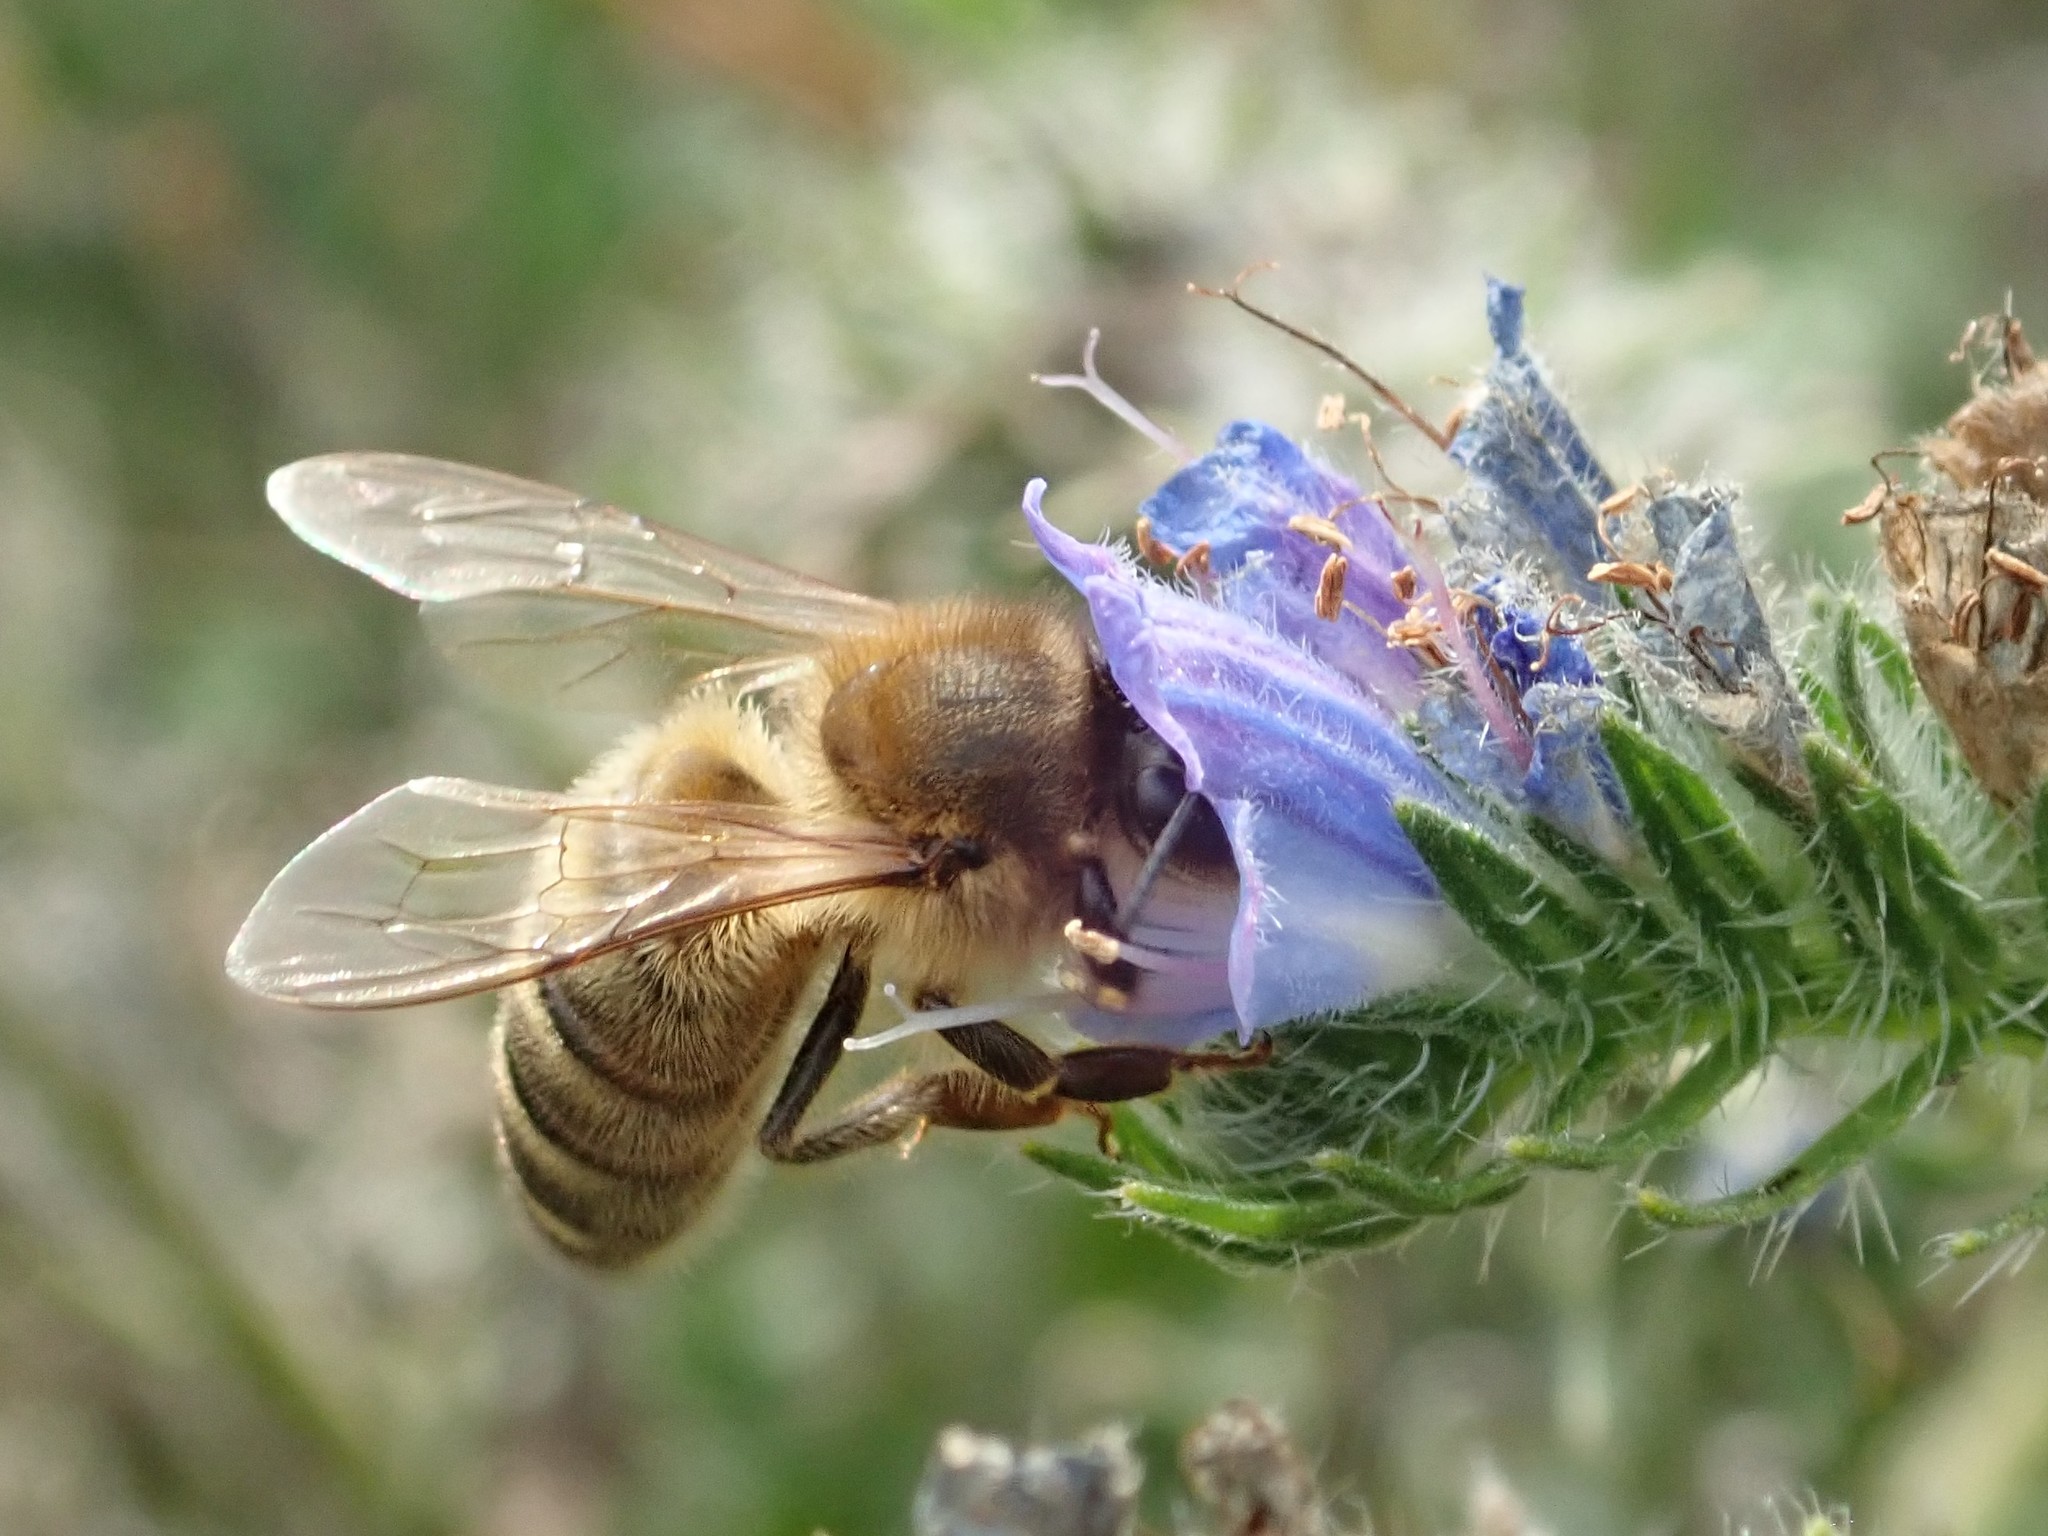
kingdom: Animalia
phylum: Arthropoda
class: Insecta
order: Hymenoptera
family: Apidae
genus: Apis
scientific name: Apis mellifera
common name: Honey bee
